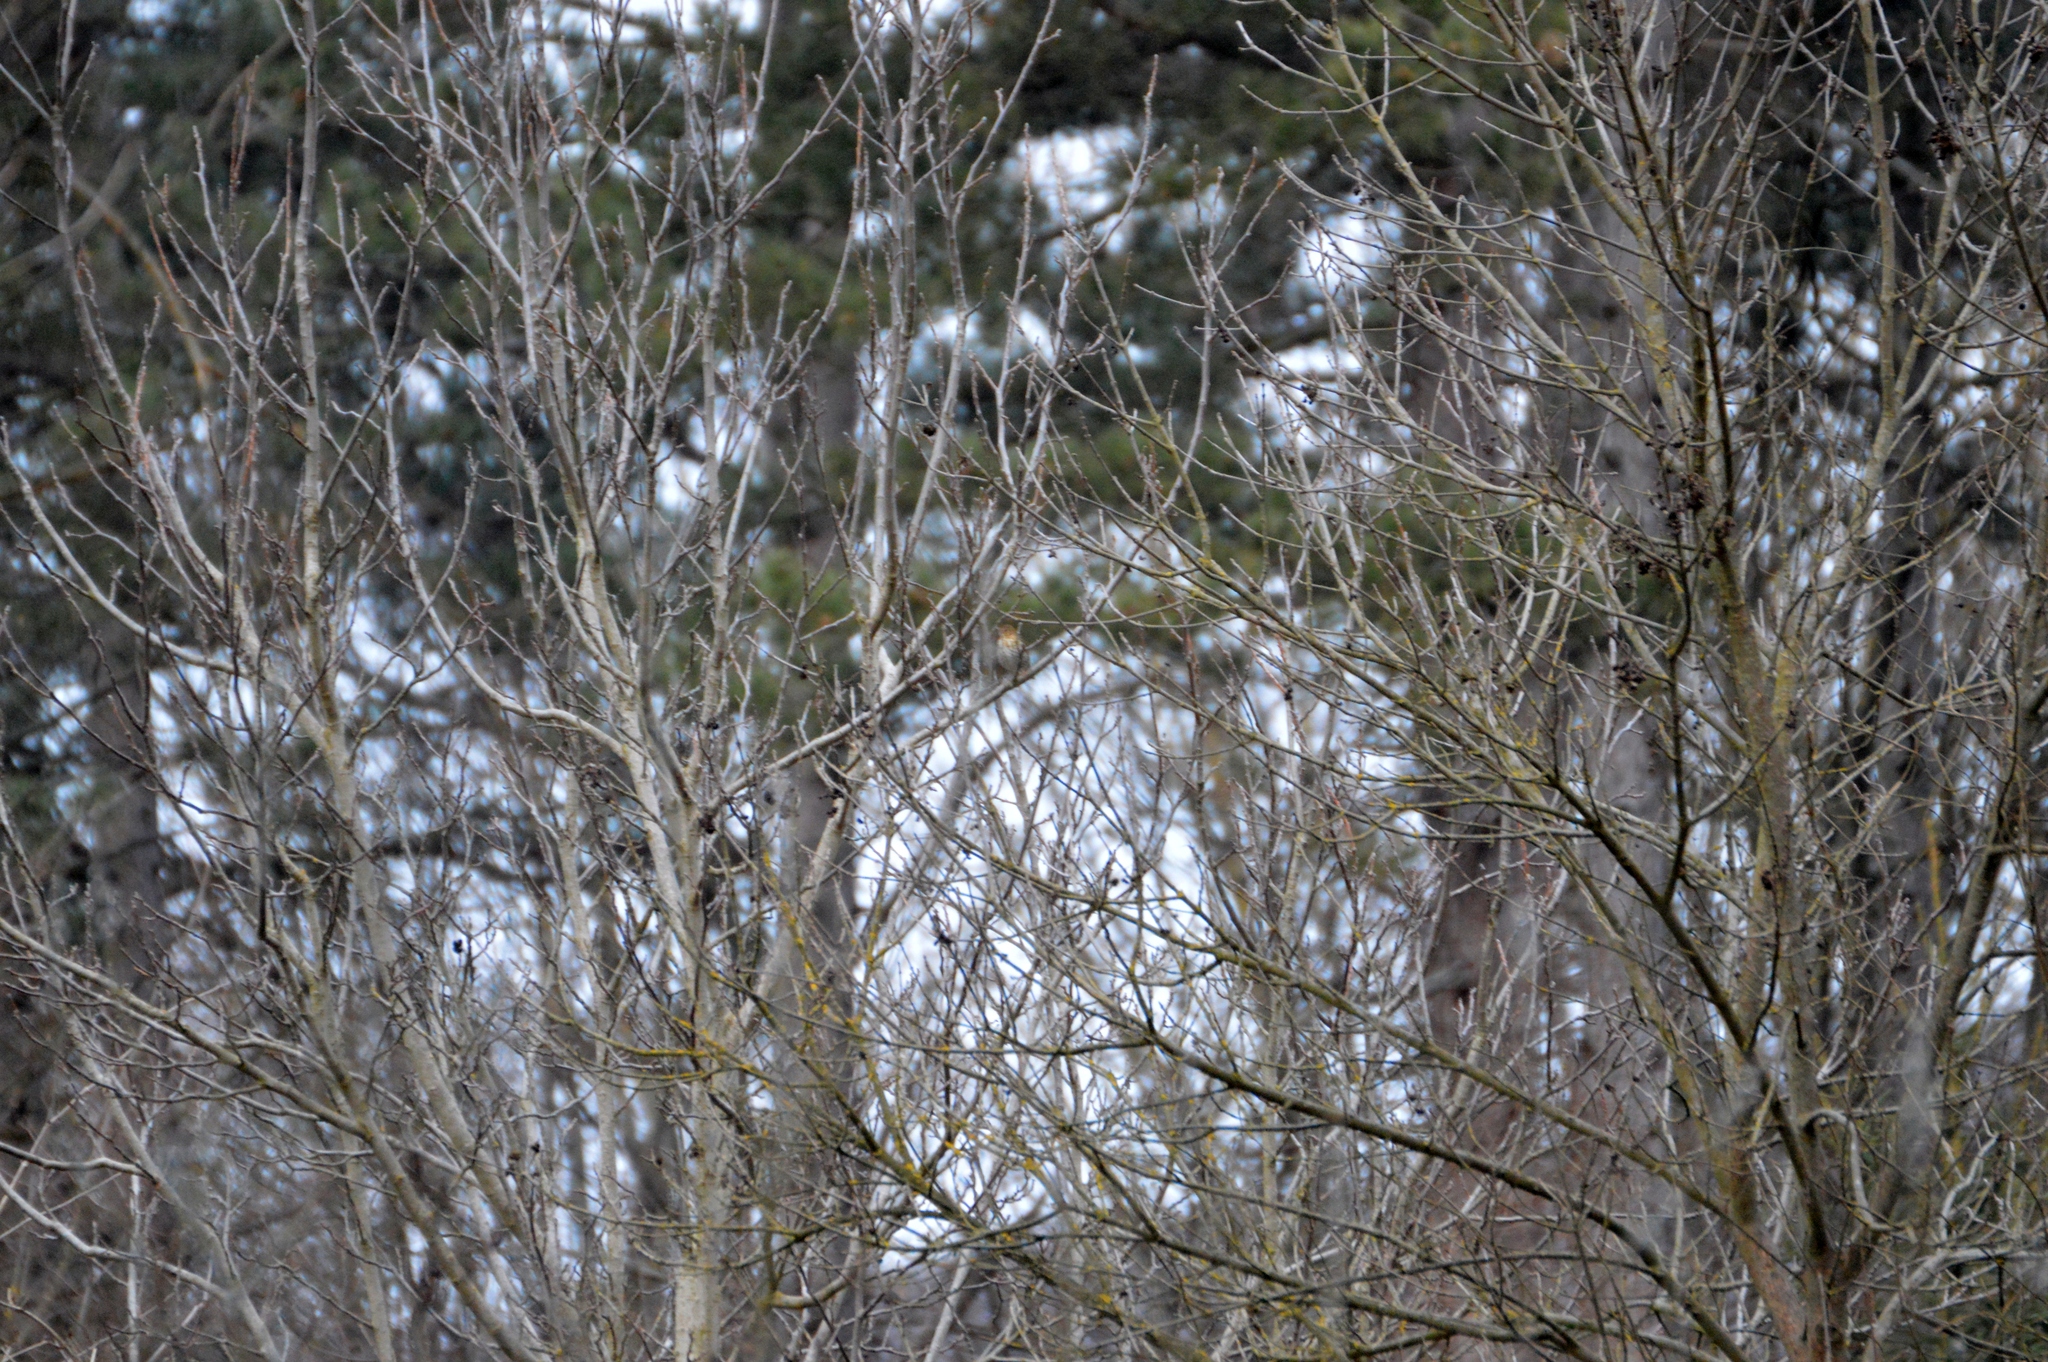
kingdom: Animalia
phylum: Chordata
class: Aves
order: Passeriformes
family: Turdidae
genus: Turdus
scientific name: Turdus philomelos
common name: Song thrush
